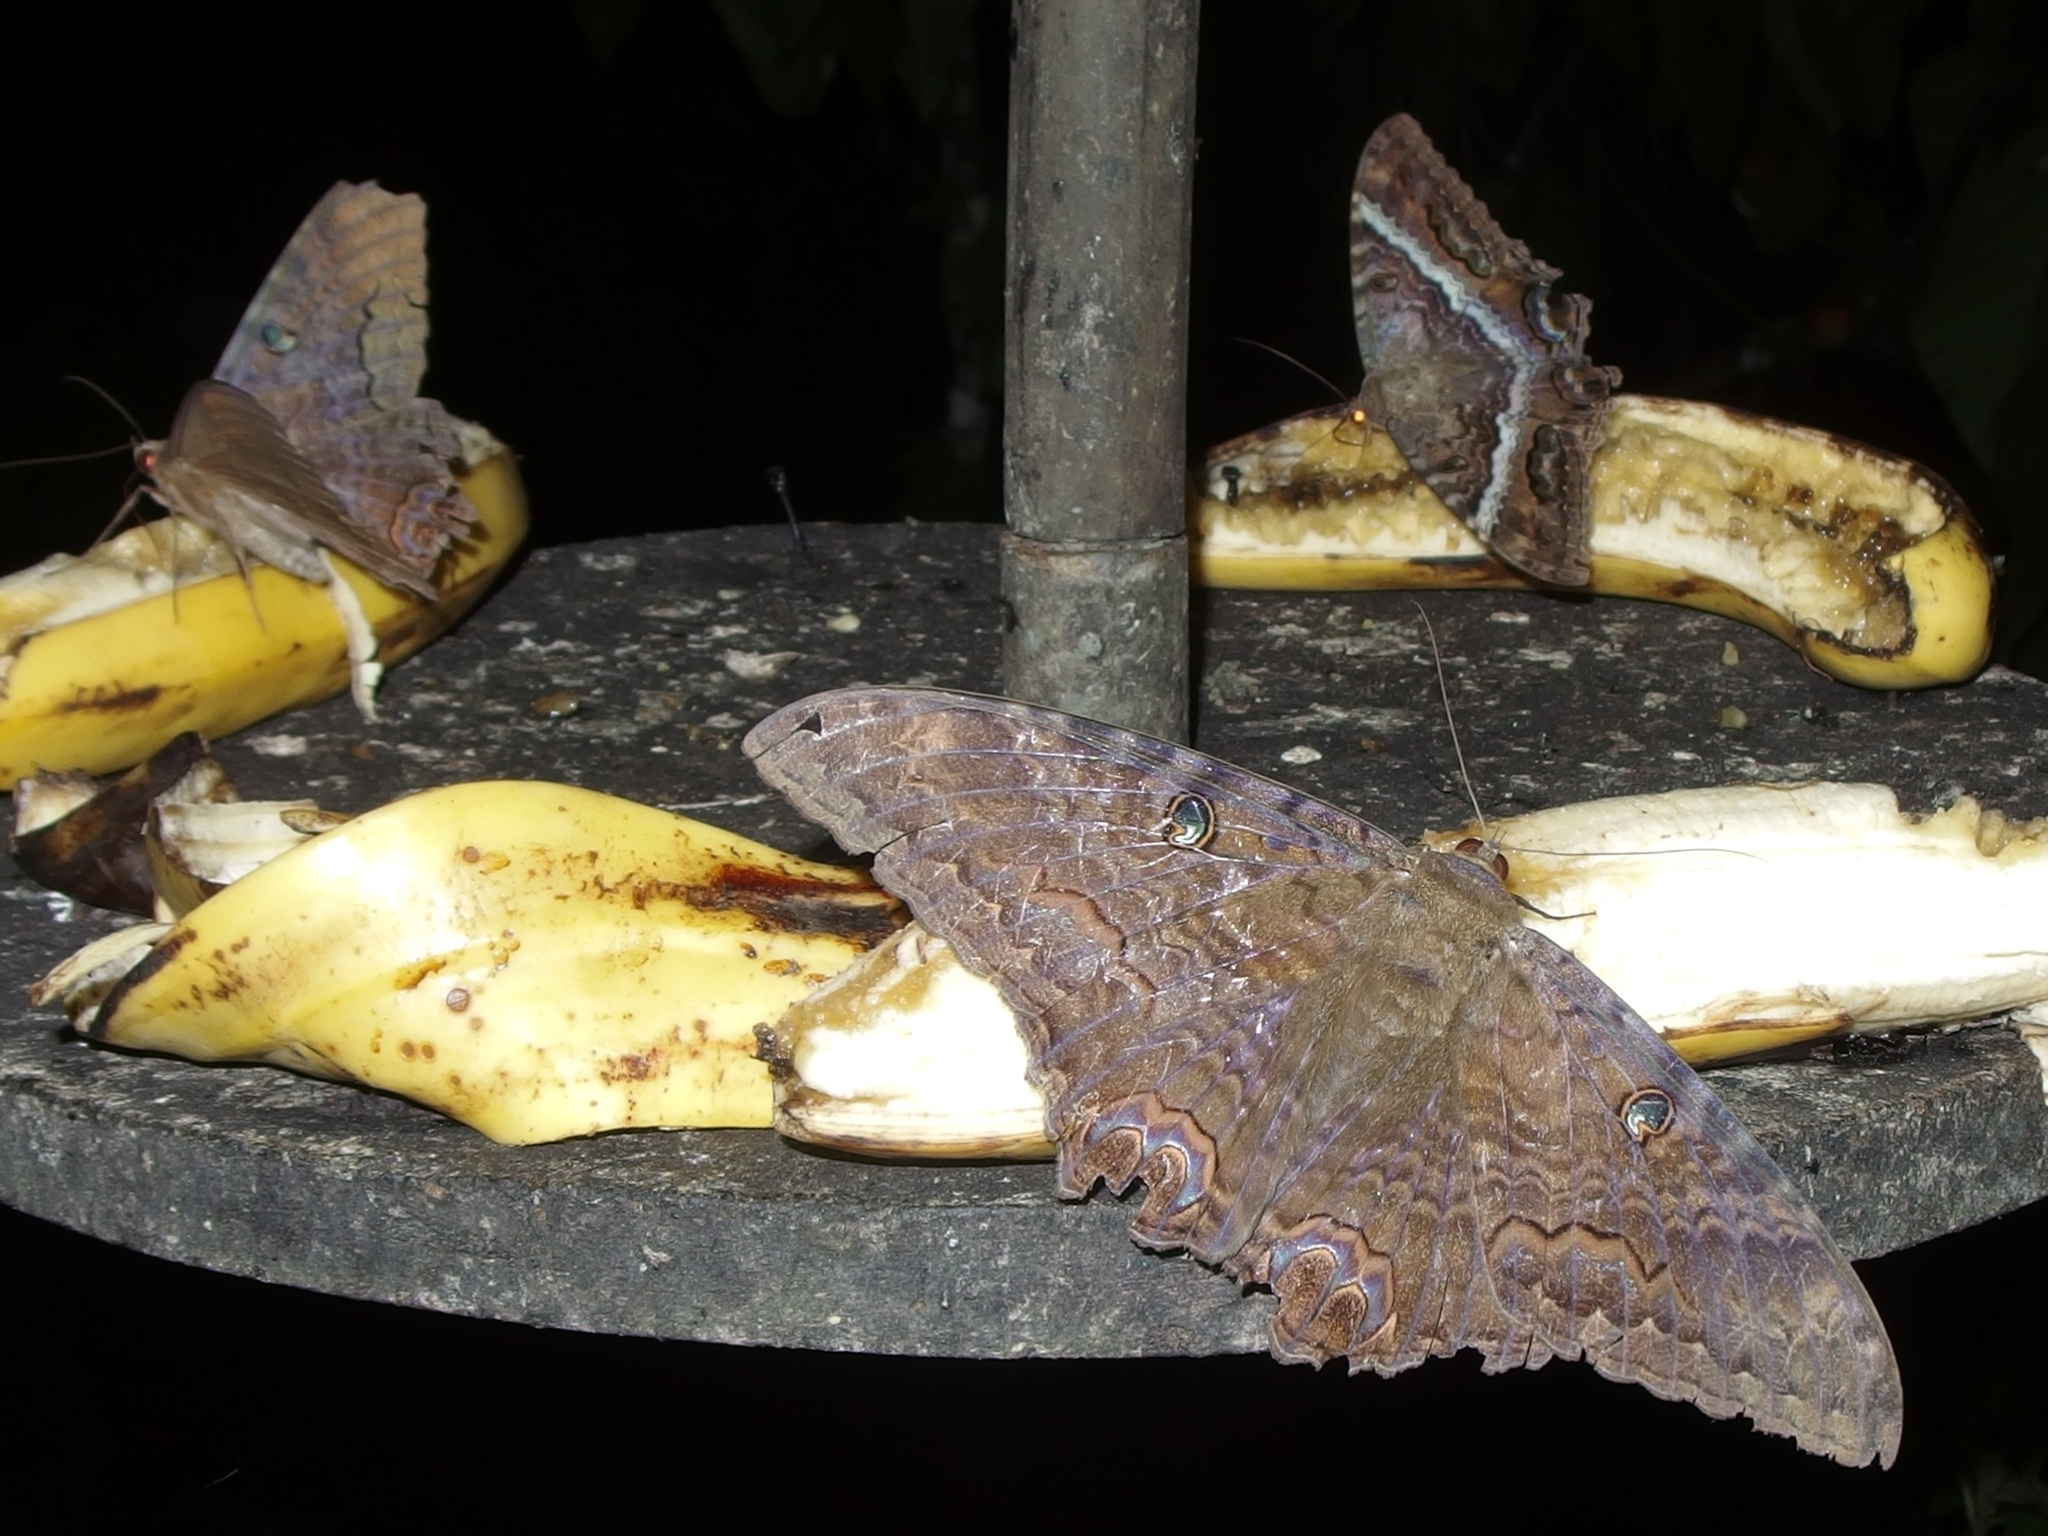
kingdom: Animalia
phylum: Arthropoda
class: Insecta
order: Lepidoptera
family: Erebidae
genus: Ascalapha
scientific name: Ascalapha odorata
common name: Black witch
